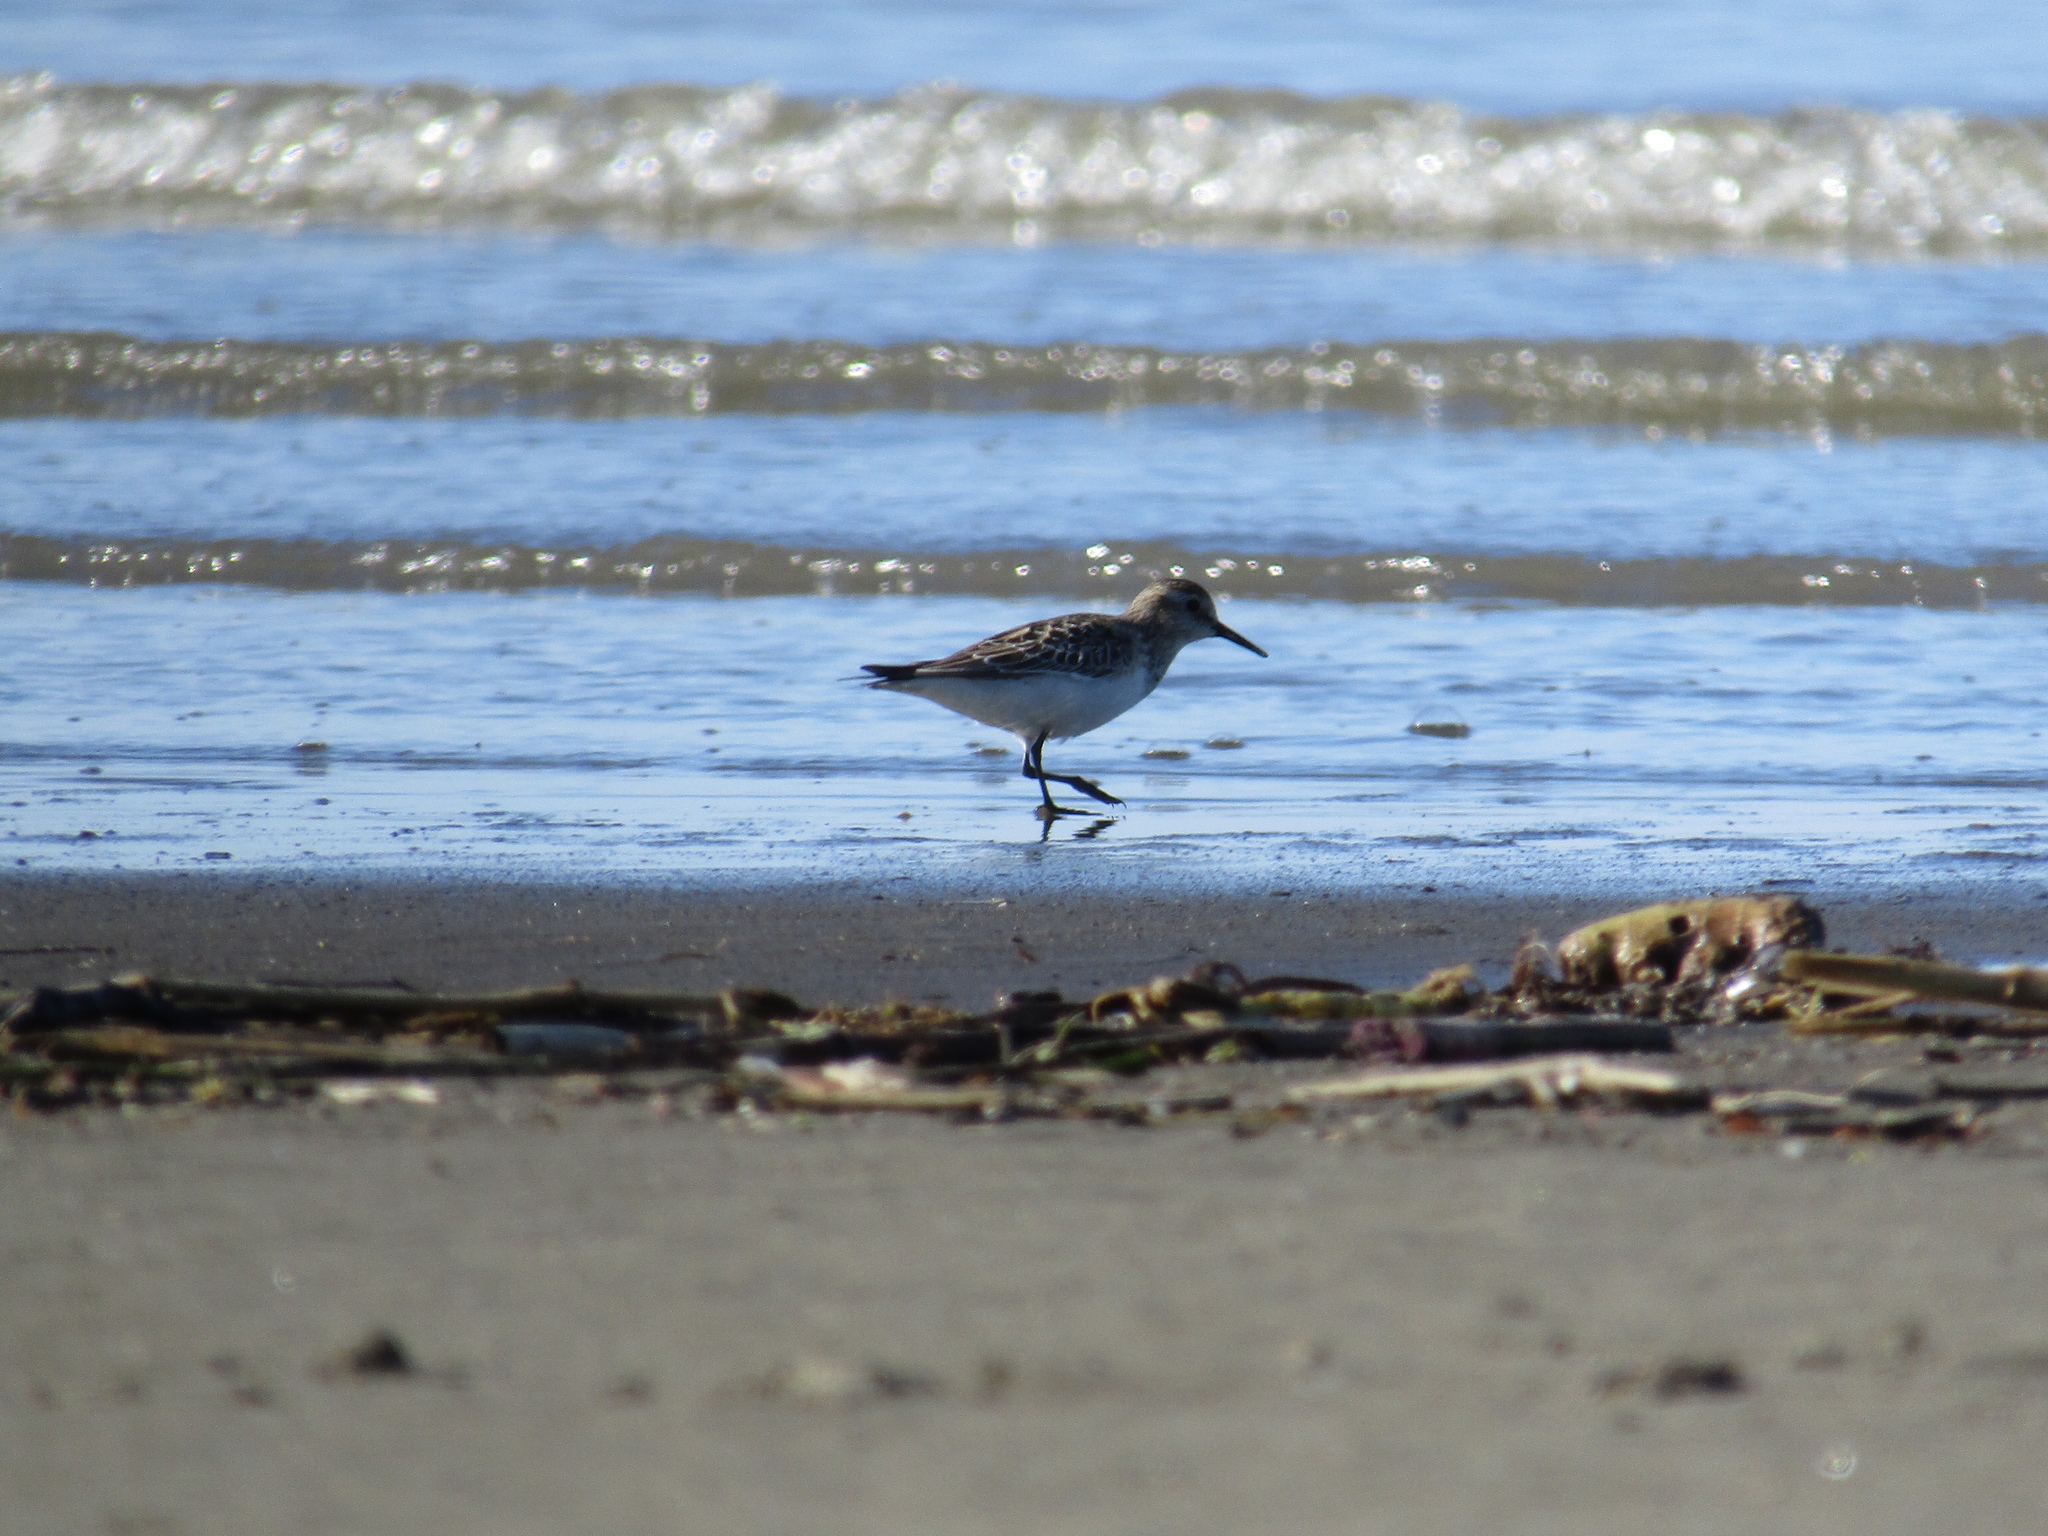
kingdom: Animalia
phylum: Chordata
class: Aves
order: Charadriiformes
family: Scolopacidae
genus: Calidris
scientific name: Calidris bairdii
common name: Baird's sandpiper
